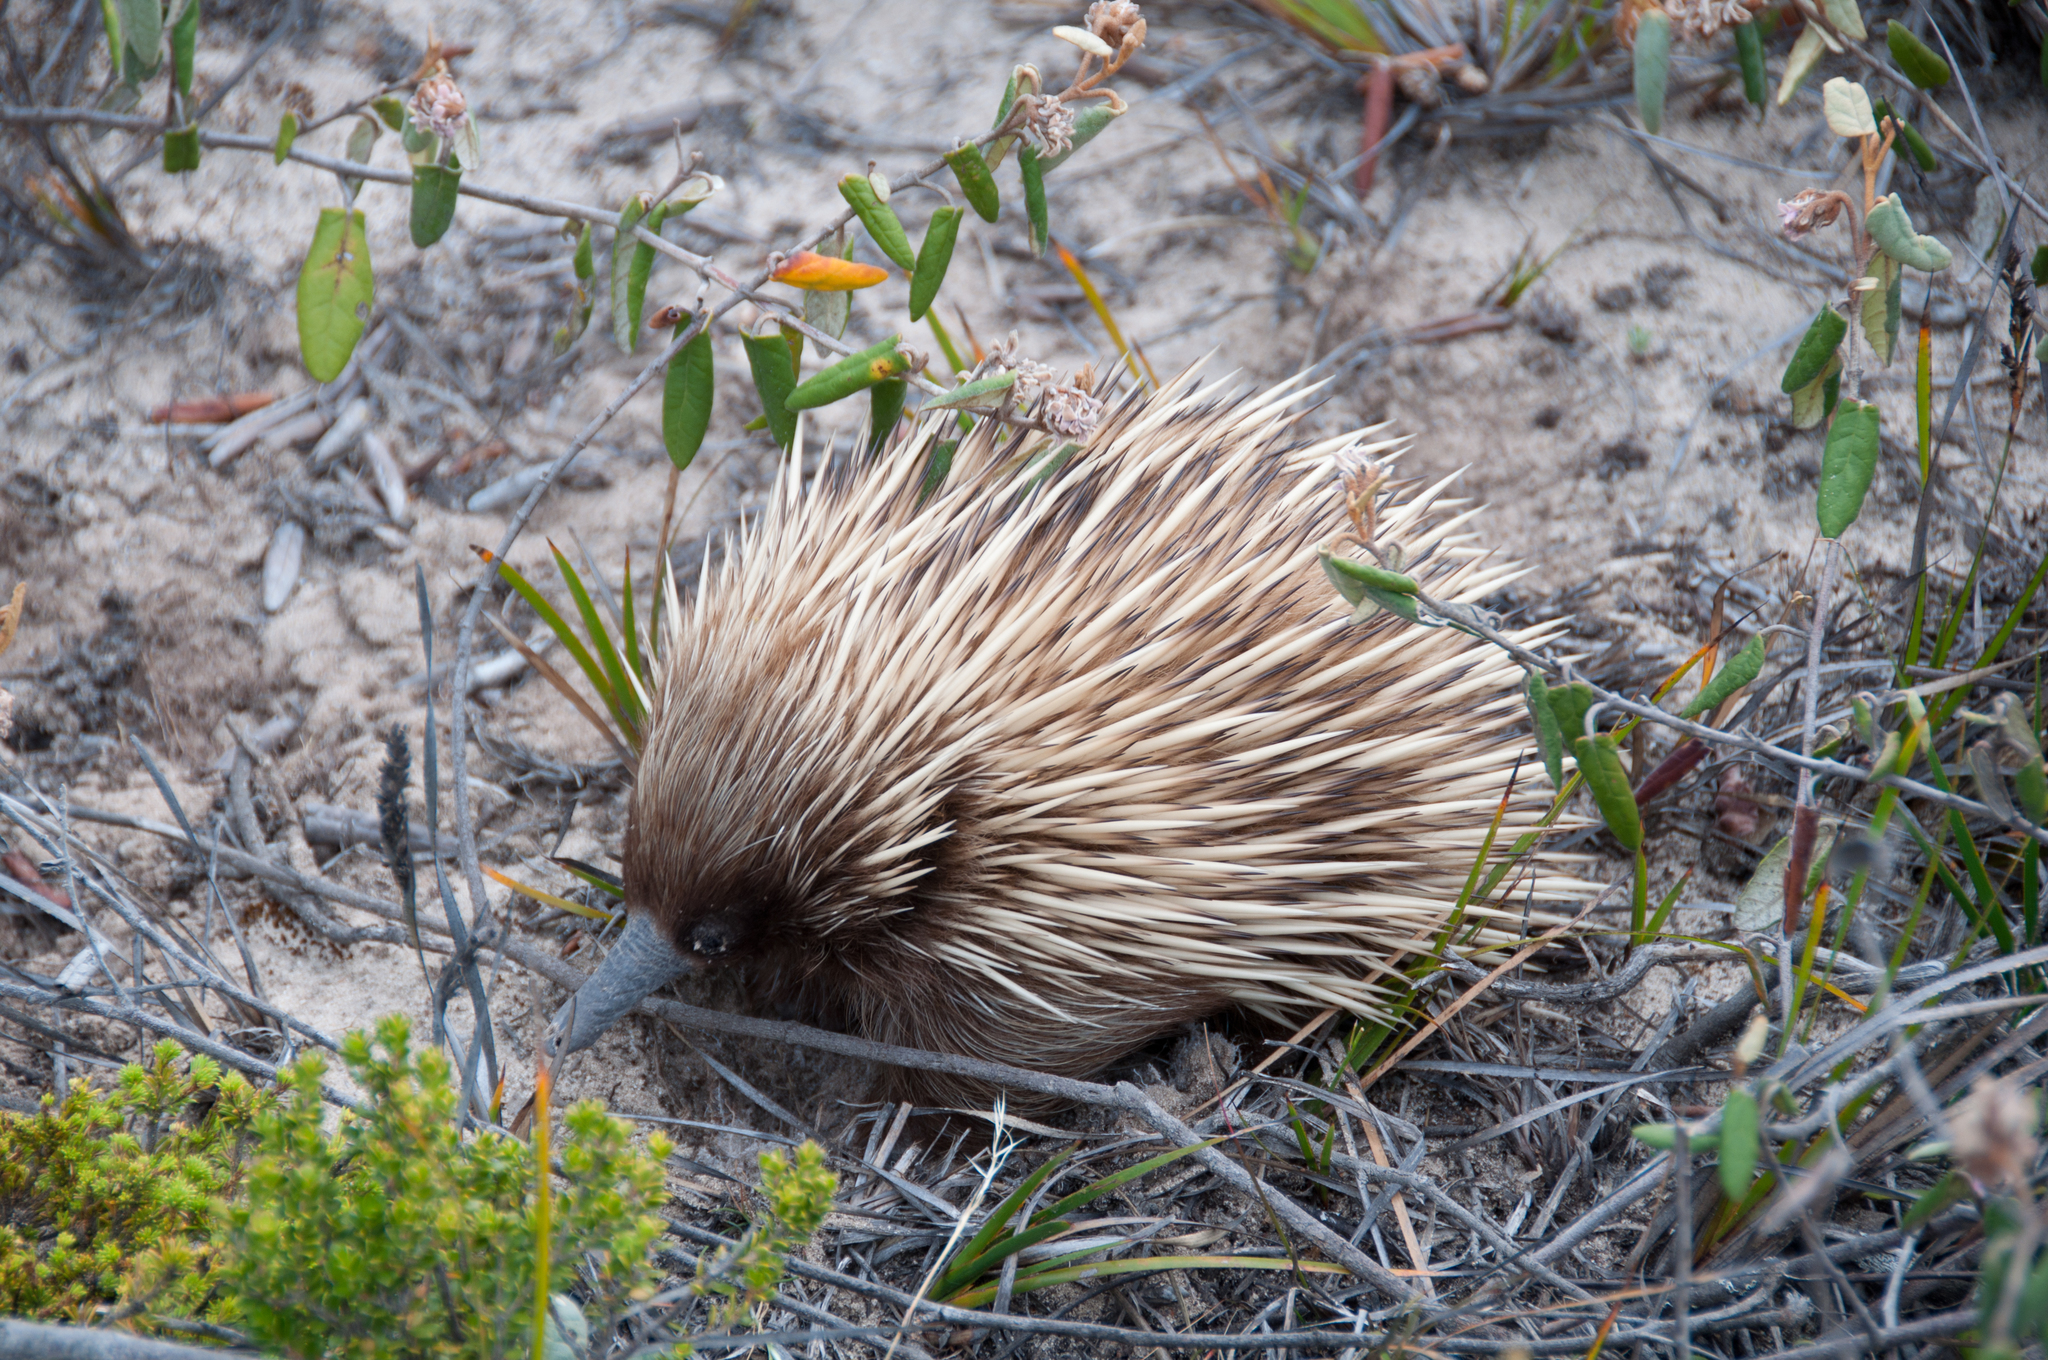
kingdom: Animalia
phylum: Chordata
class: Mammalia
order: Monotremata
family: Tachyglossidae
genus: Tachyglossus
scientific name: Tachyglossus aculeatus
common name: Short-beaked echidna
